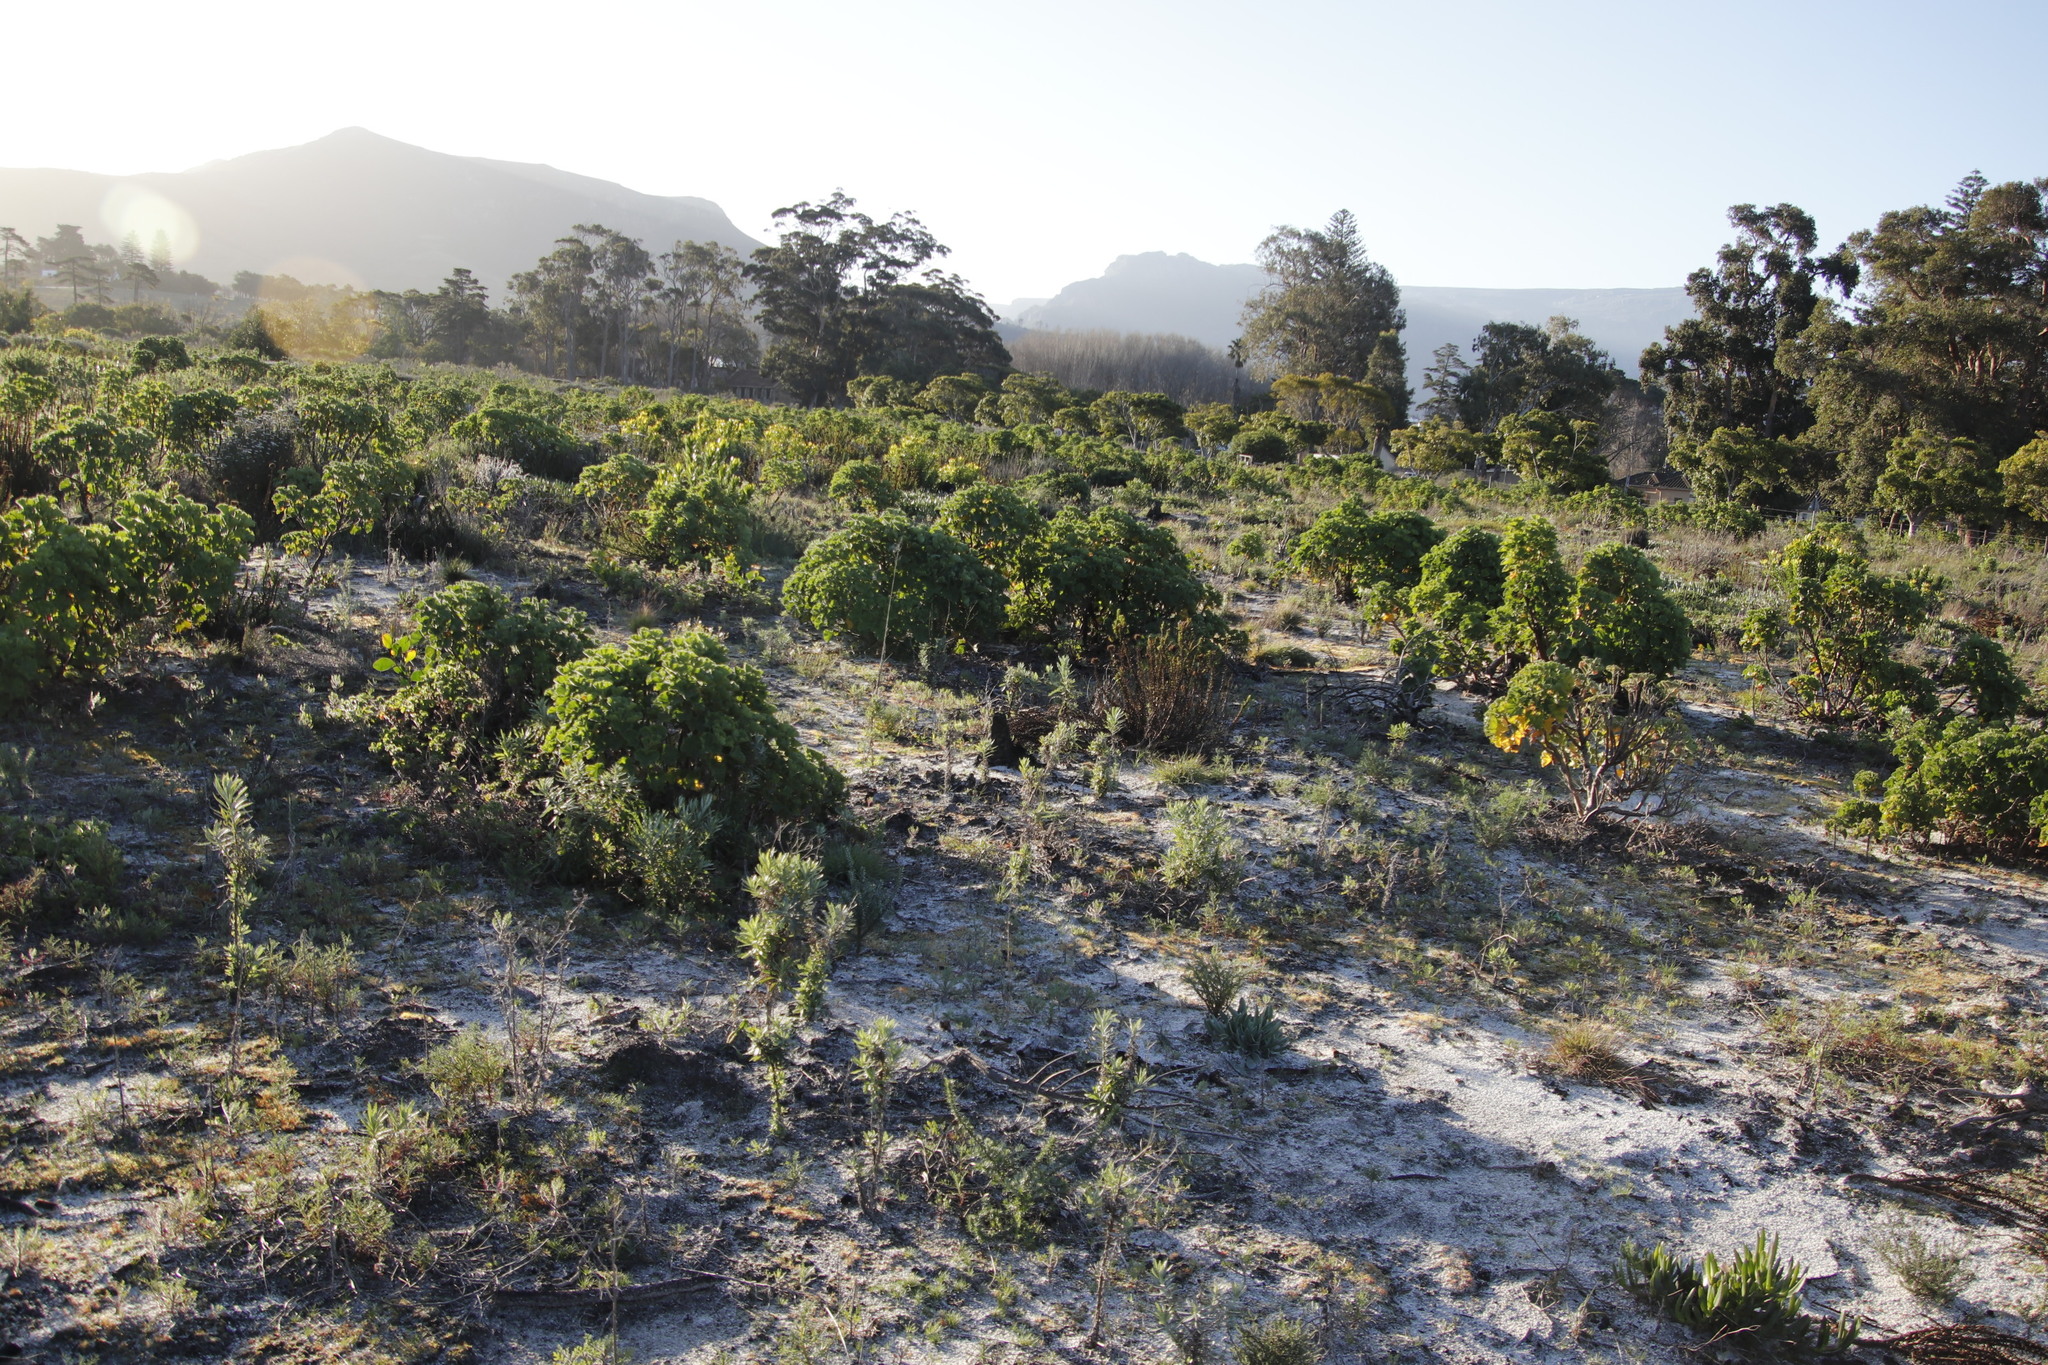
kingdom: Plantae
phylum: Tracheophyta
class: Magnoliopsida
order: Geraniales
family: Geraniaceae
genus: Pelargonium
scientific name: Pelargonium cucullatum
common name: Tree pelargonium
